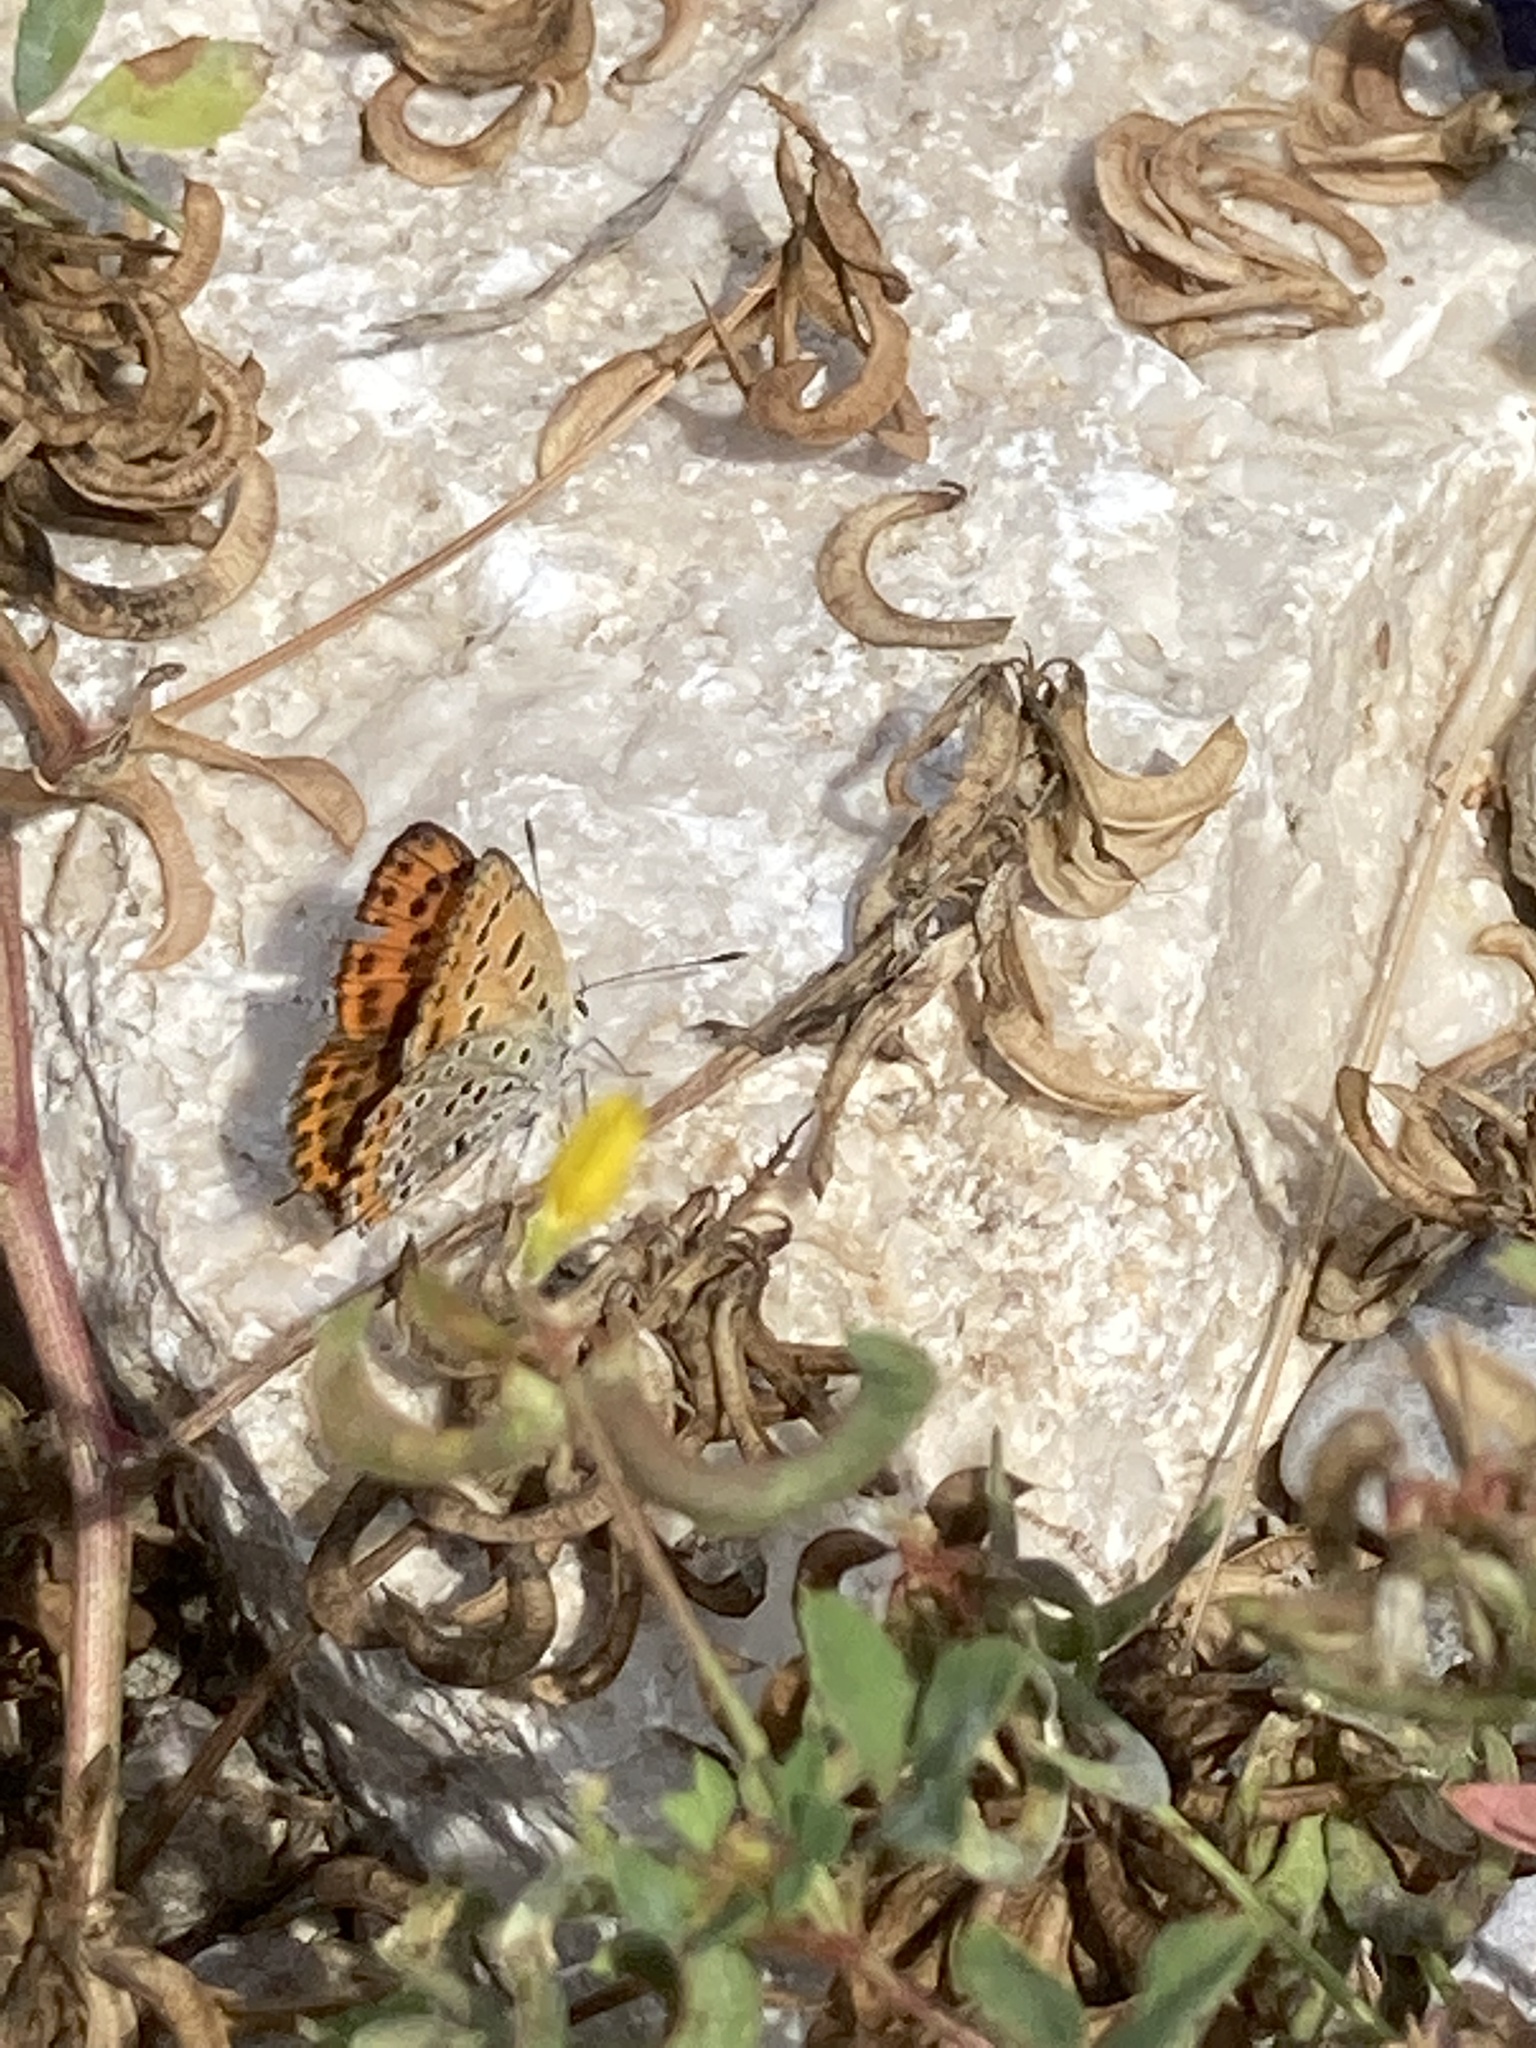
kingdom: Animalia
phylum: Arthropoda
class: Insecta
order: Lepidoptera
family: Lycaenidae
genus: Thersamonia
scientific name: Thersamonia thersamon
